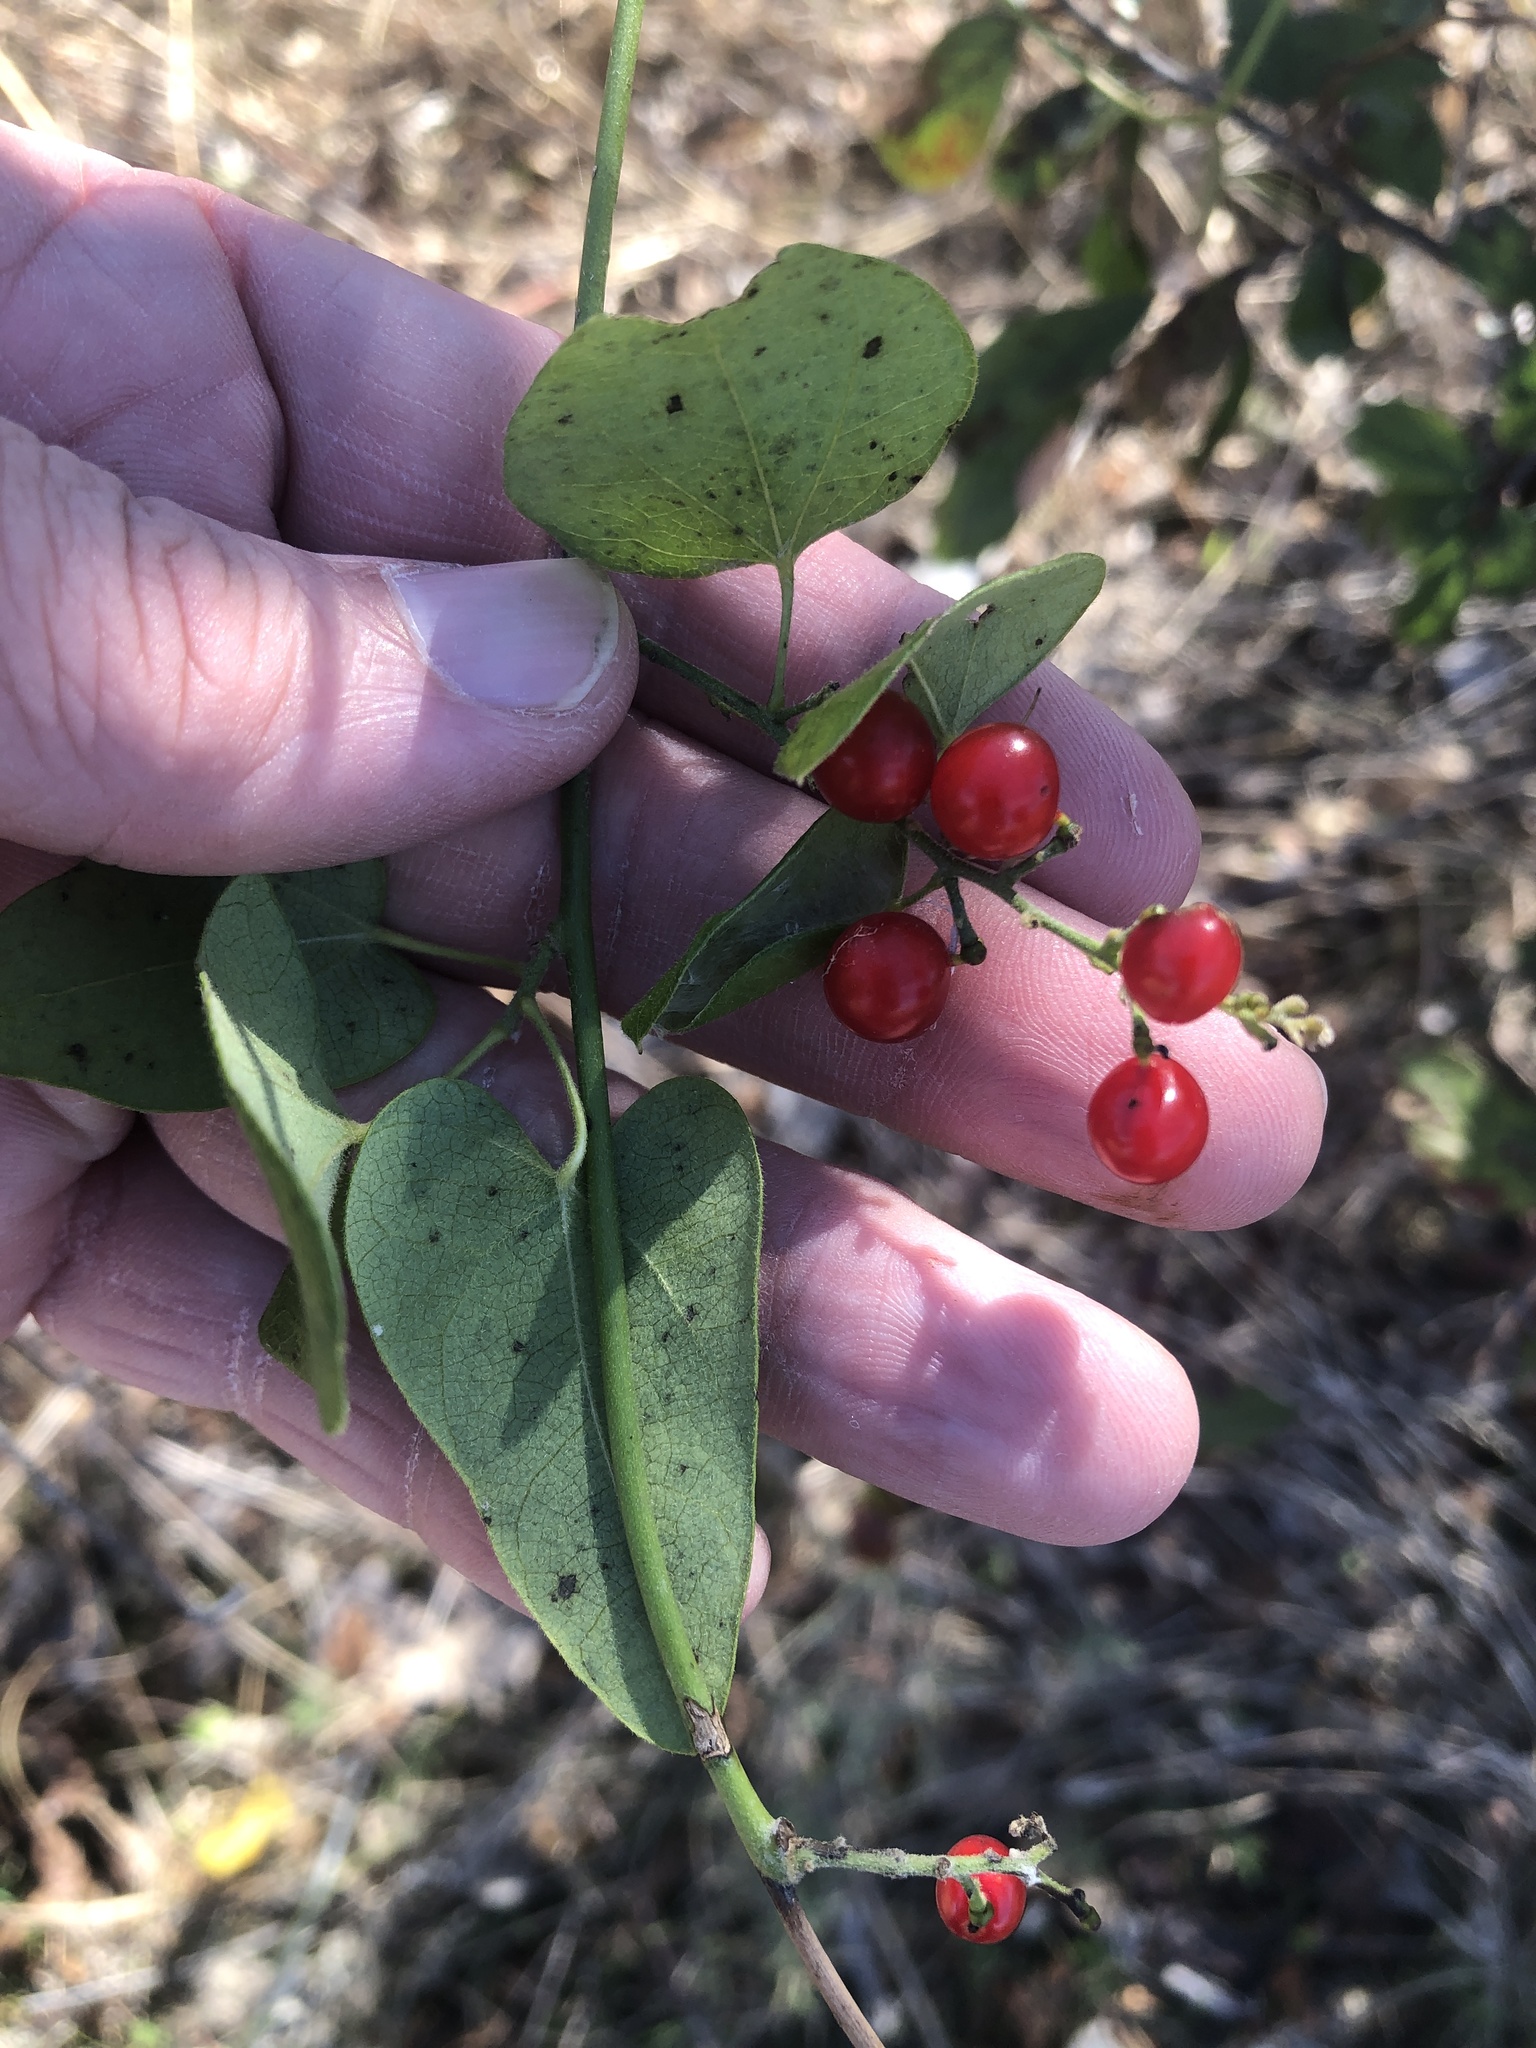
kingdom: Plantae
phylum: Tracheophyta
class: Magnoliopsida
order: Ranunculales
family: Menispermaceae
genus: Cocculus
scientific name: Cocculus carolinus
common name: Carolina moonseed
